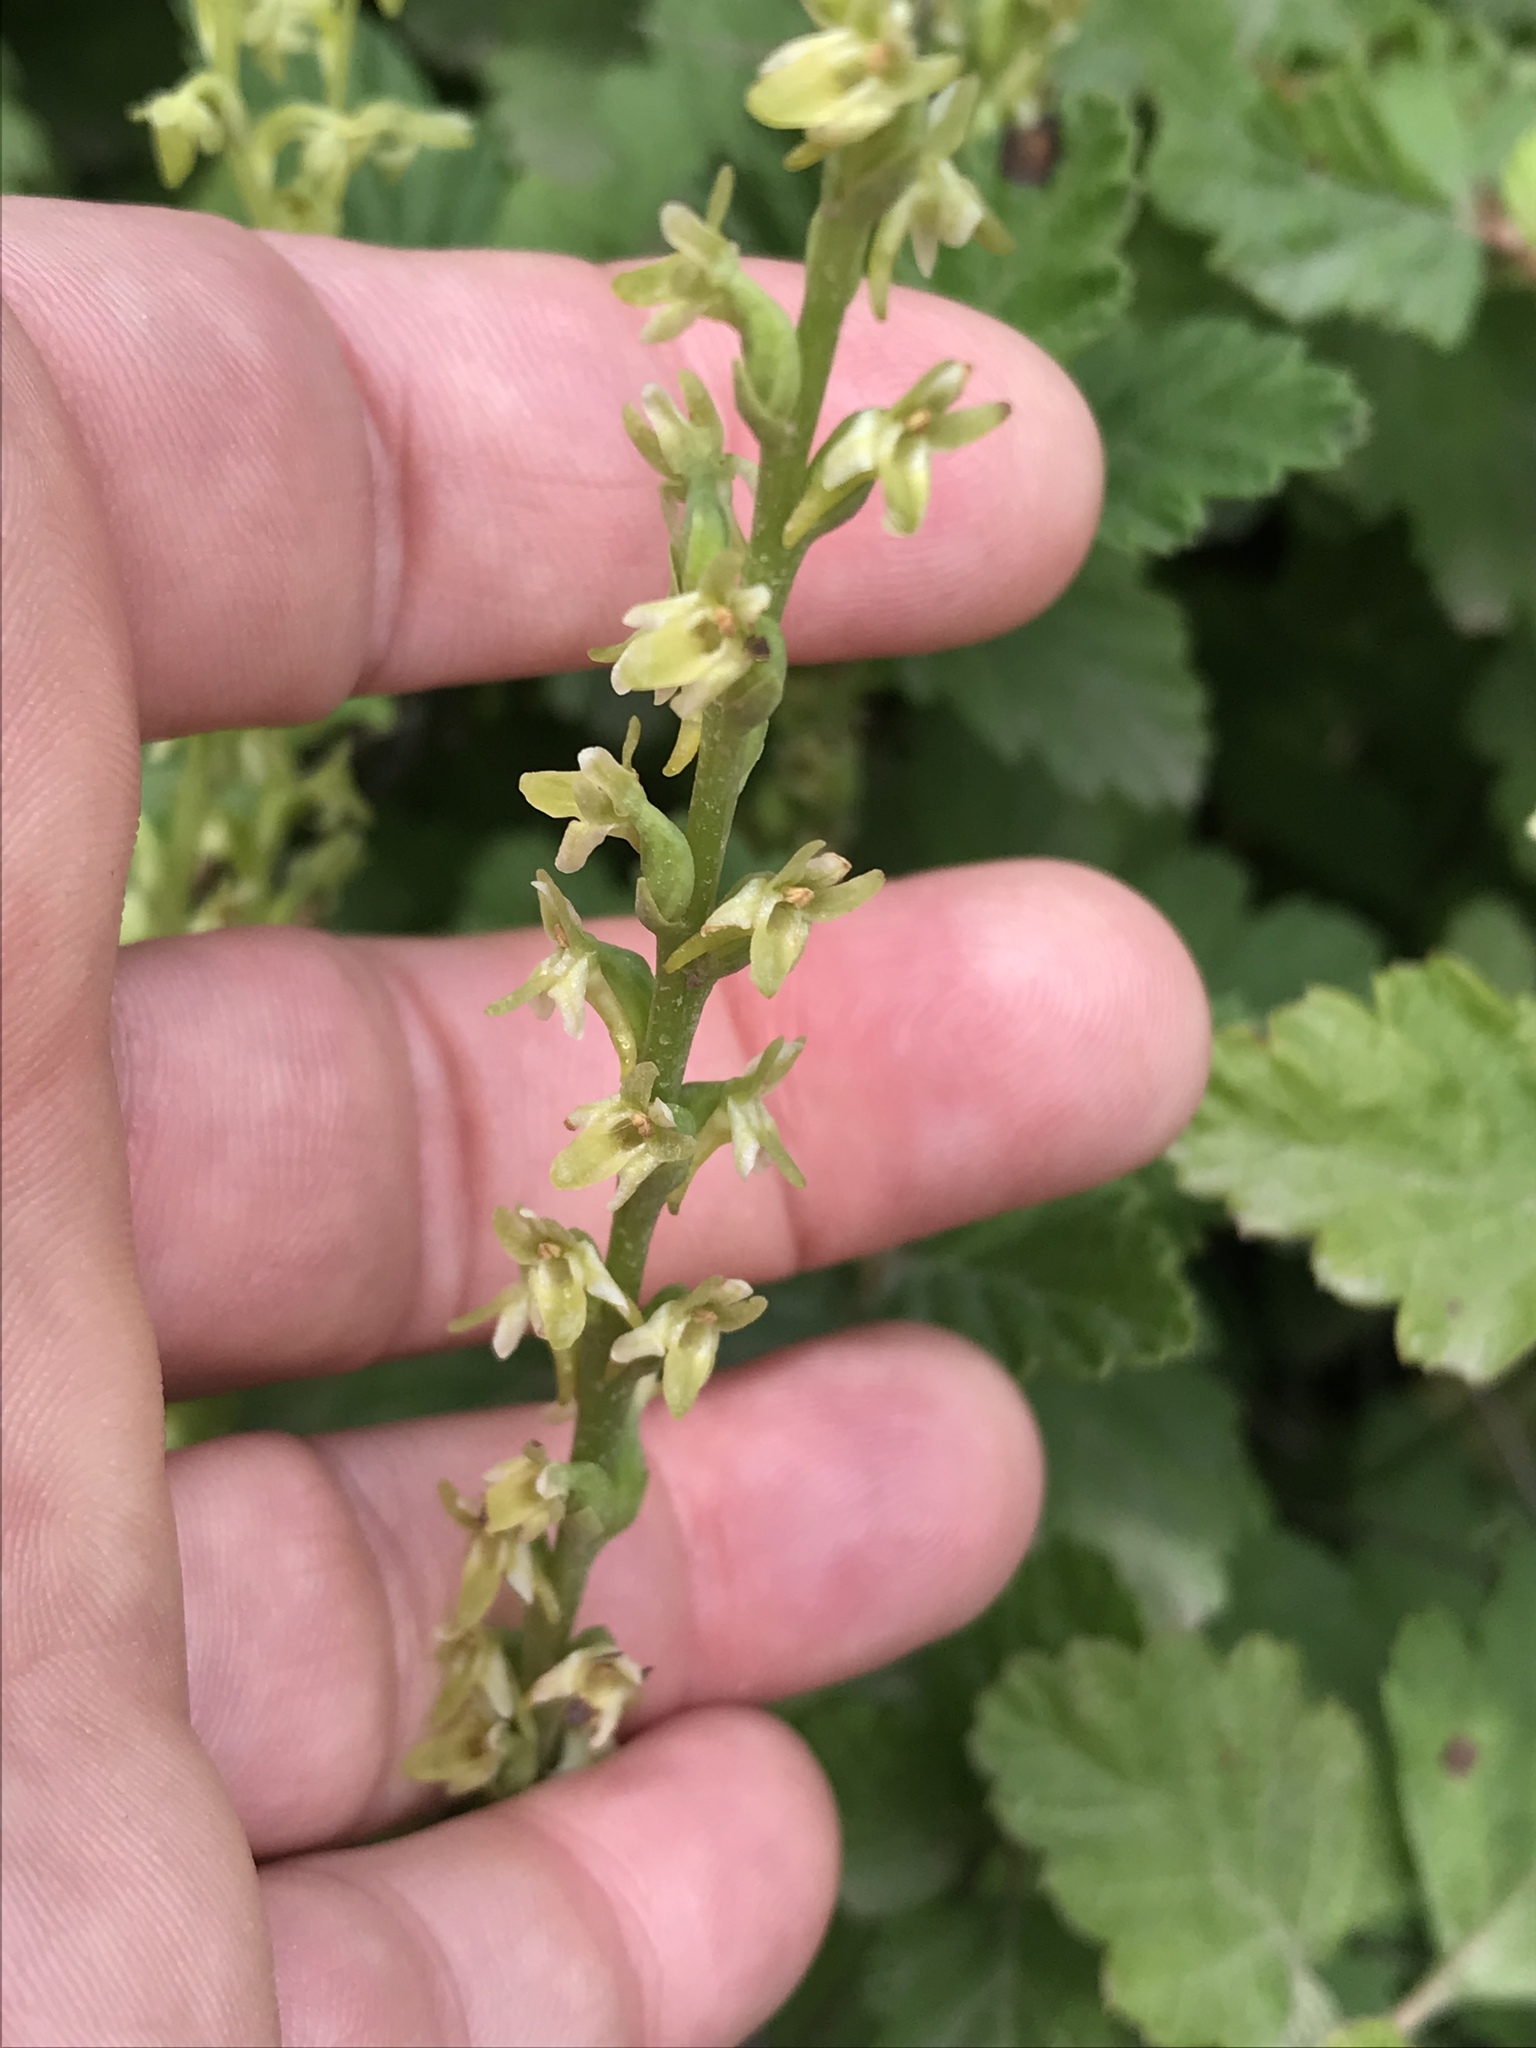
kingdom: Plantae
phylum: Tracheophyta
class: Liliopsida
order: Asparagales
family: Orchidaceae
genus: Platanthera
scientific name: Platanthera unalascensis
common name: Alaska bog orchid
